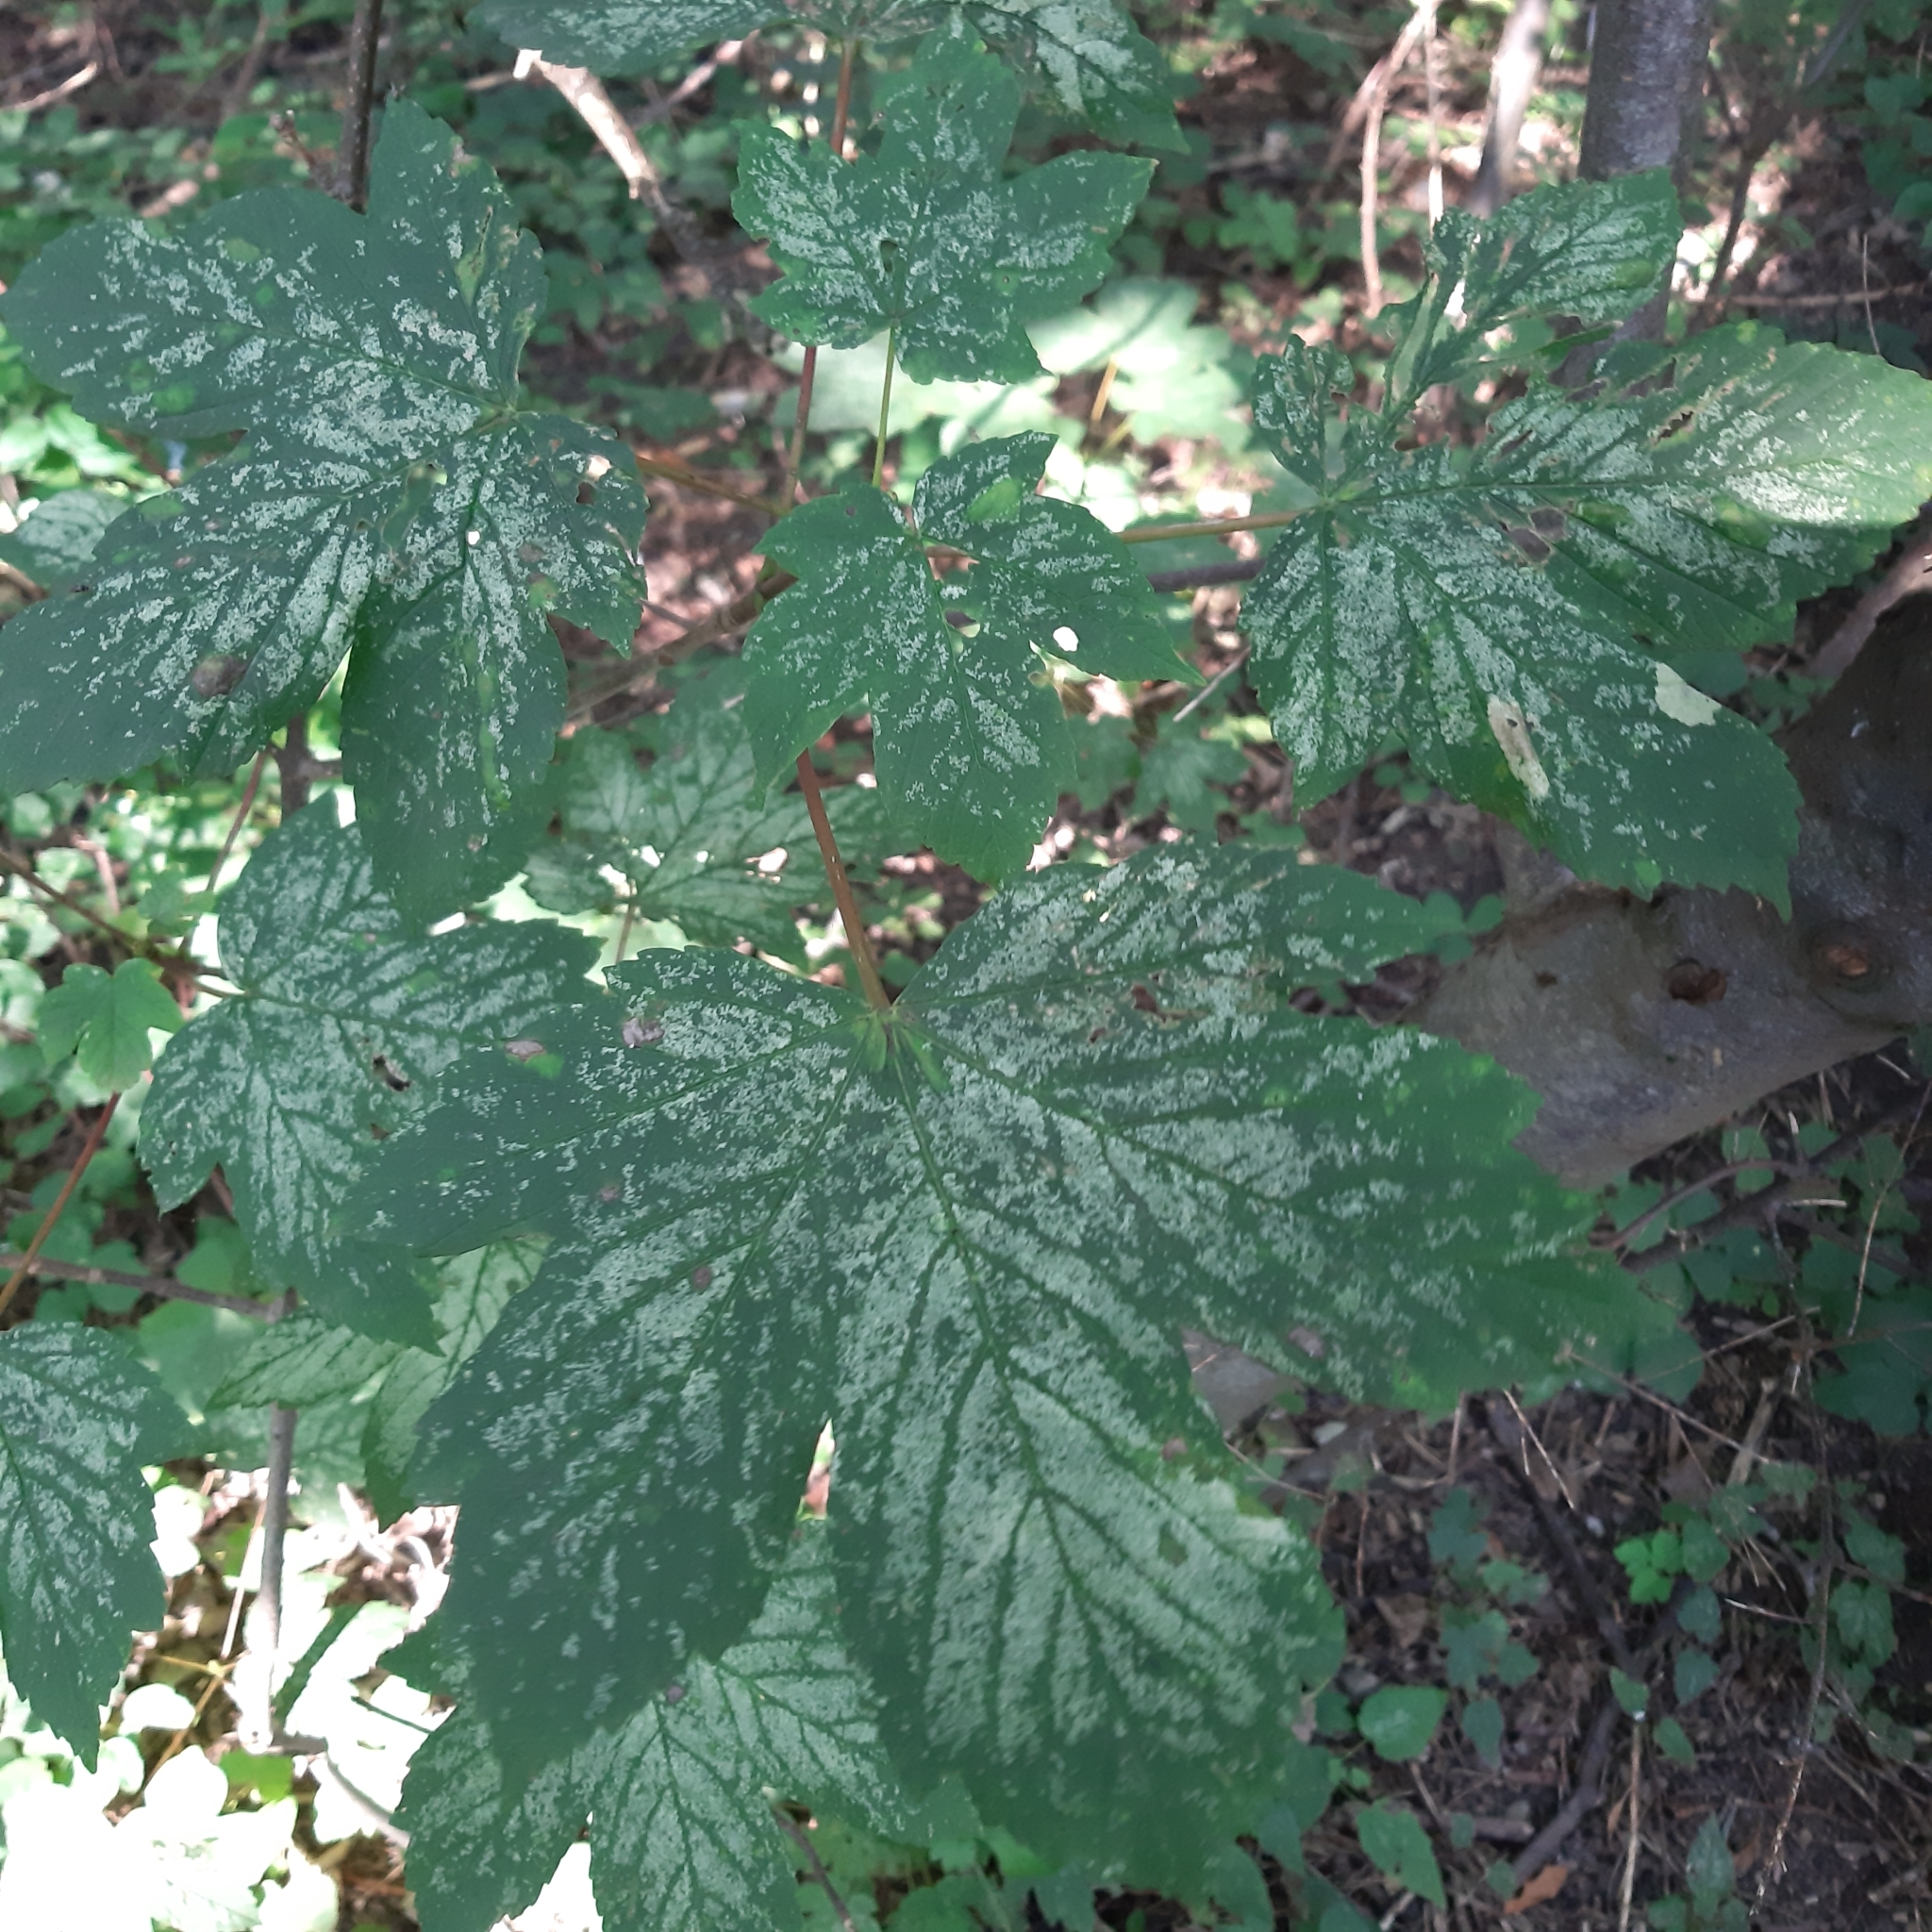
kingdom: Plantae
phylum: Tracheophyta
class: Magnoliopsida
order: Sapindales
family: Sapindaceae
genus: Acer
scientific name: Acer pseudoplatanus
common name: Sycamore
